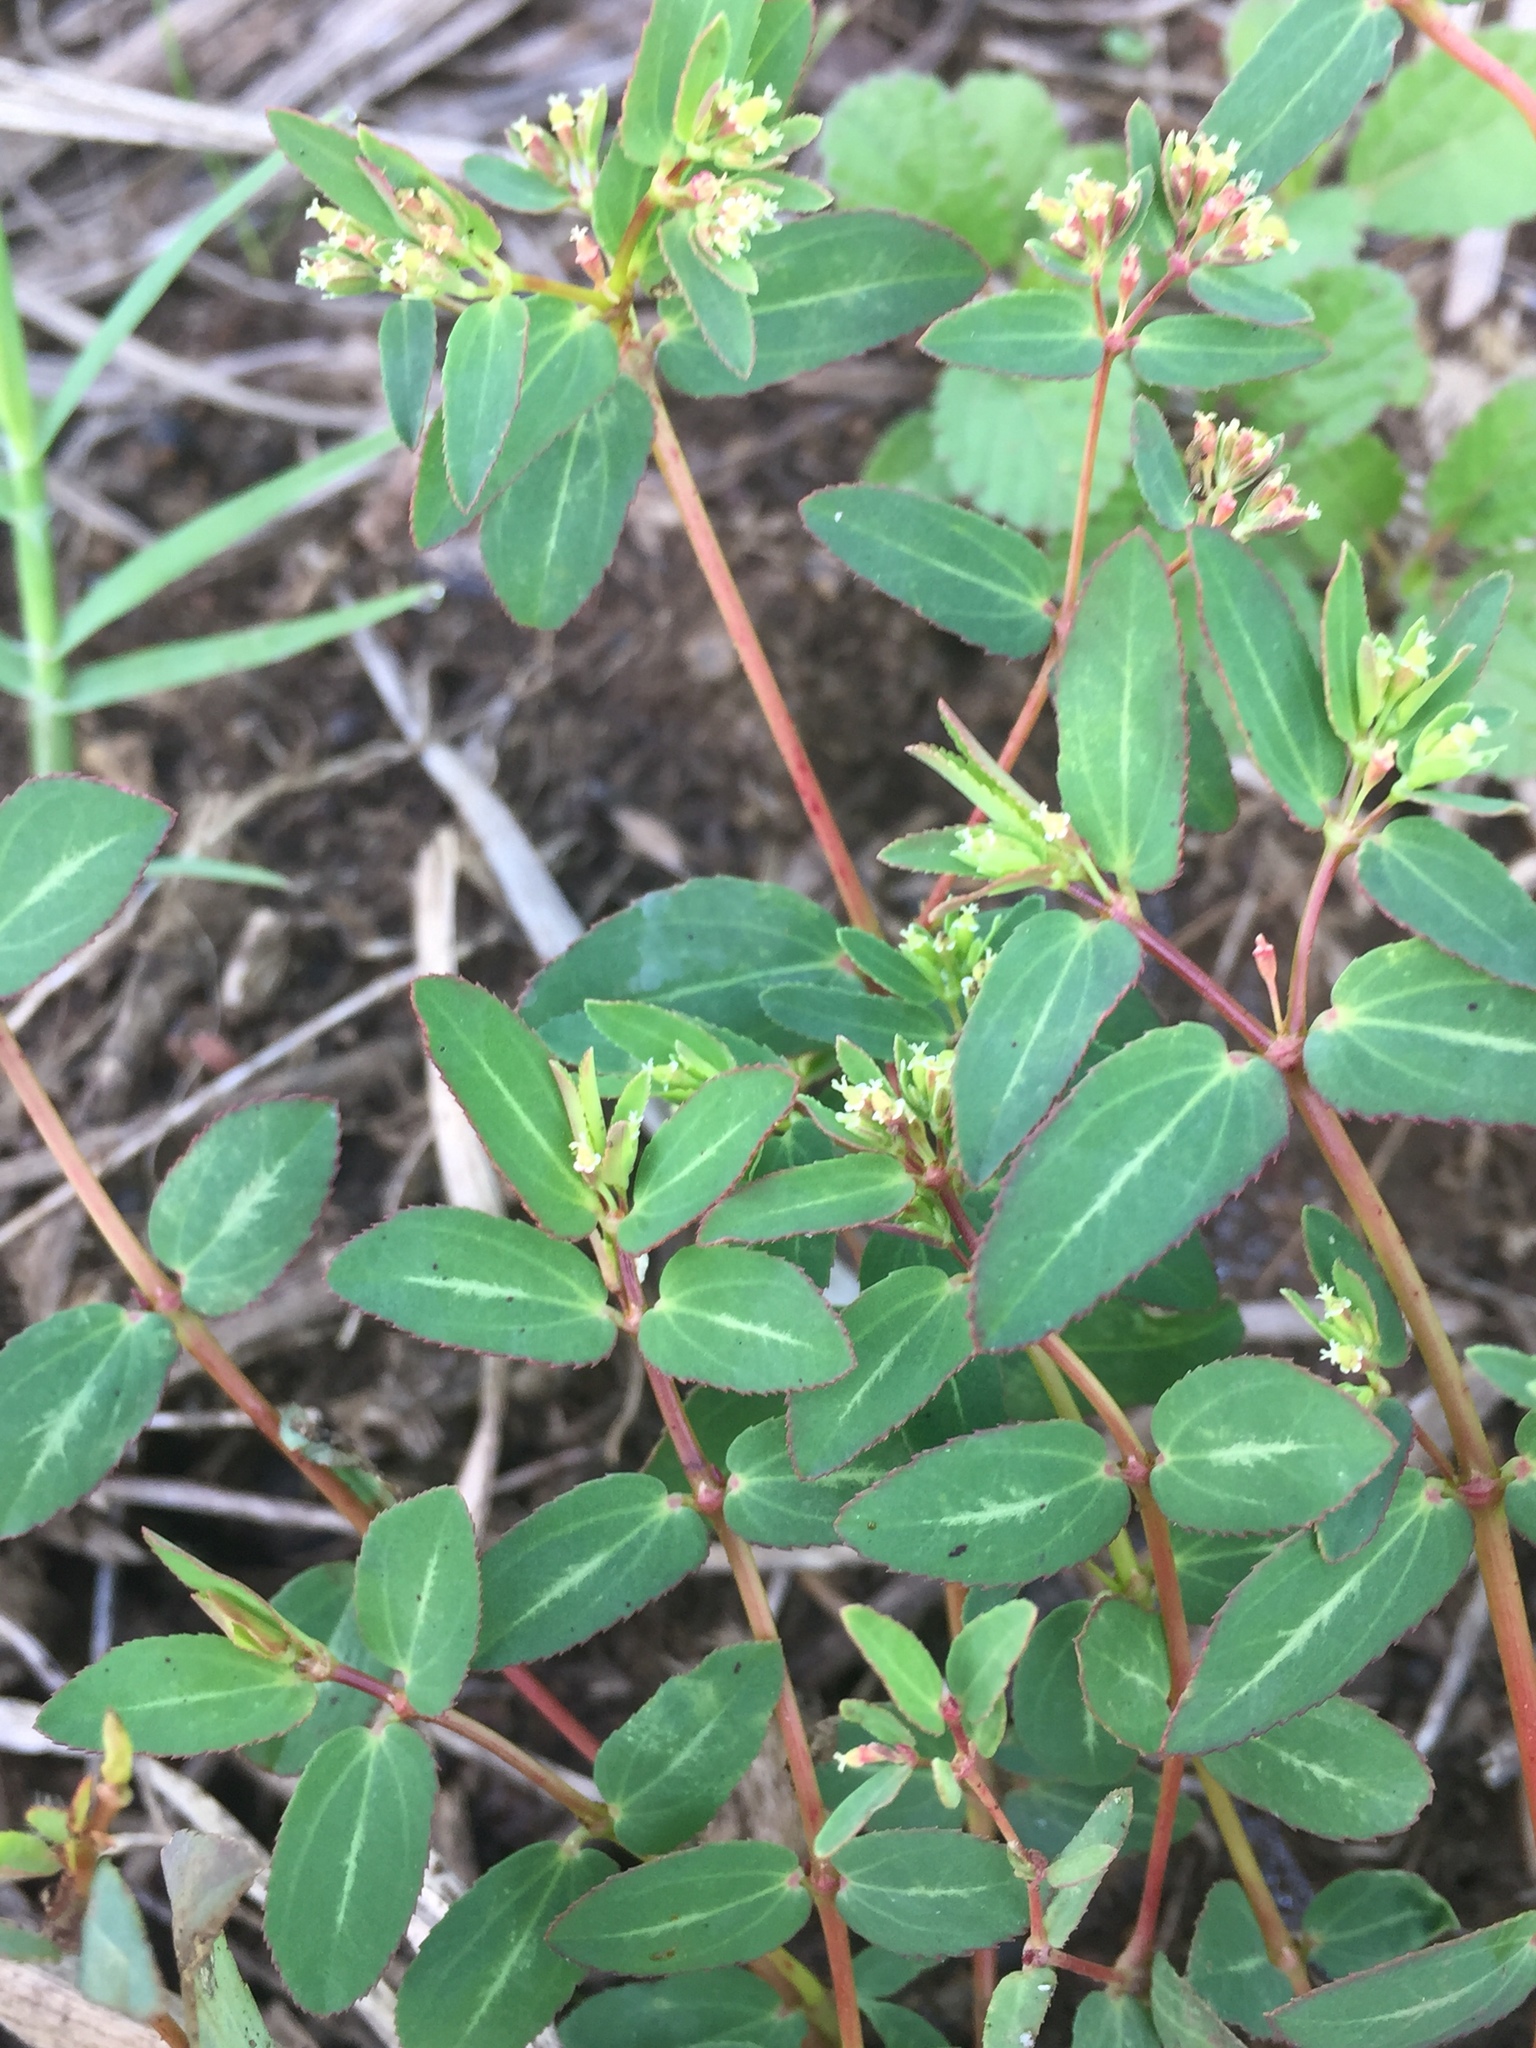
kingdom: Plantae
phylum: Tracheophyta
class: Magnoliopsida
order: Malpighiales
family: Euphorbiaceae
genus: Euphorbia
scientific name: Euphorbia hyssopifolia
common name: Hyssopleaf sandmat
